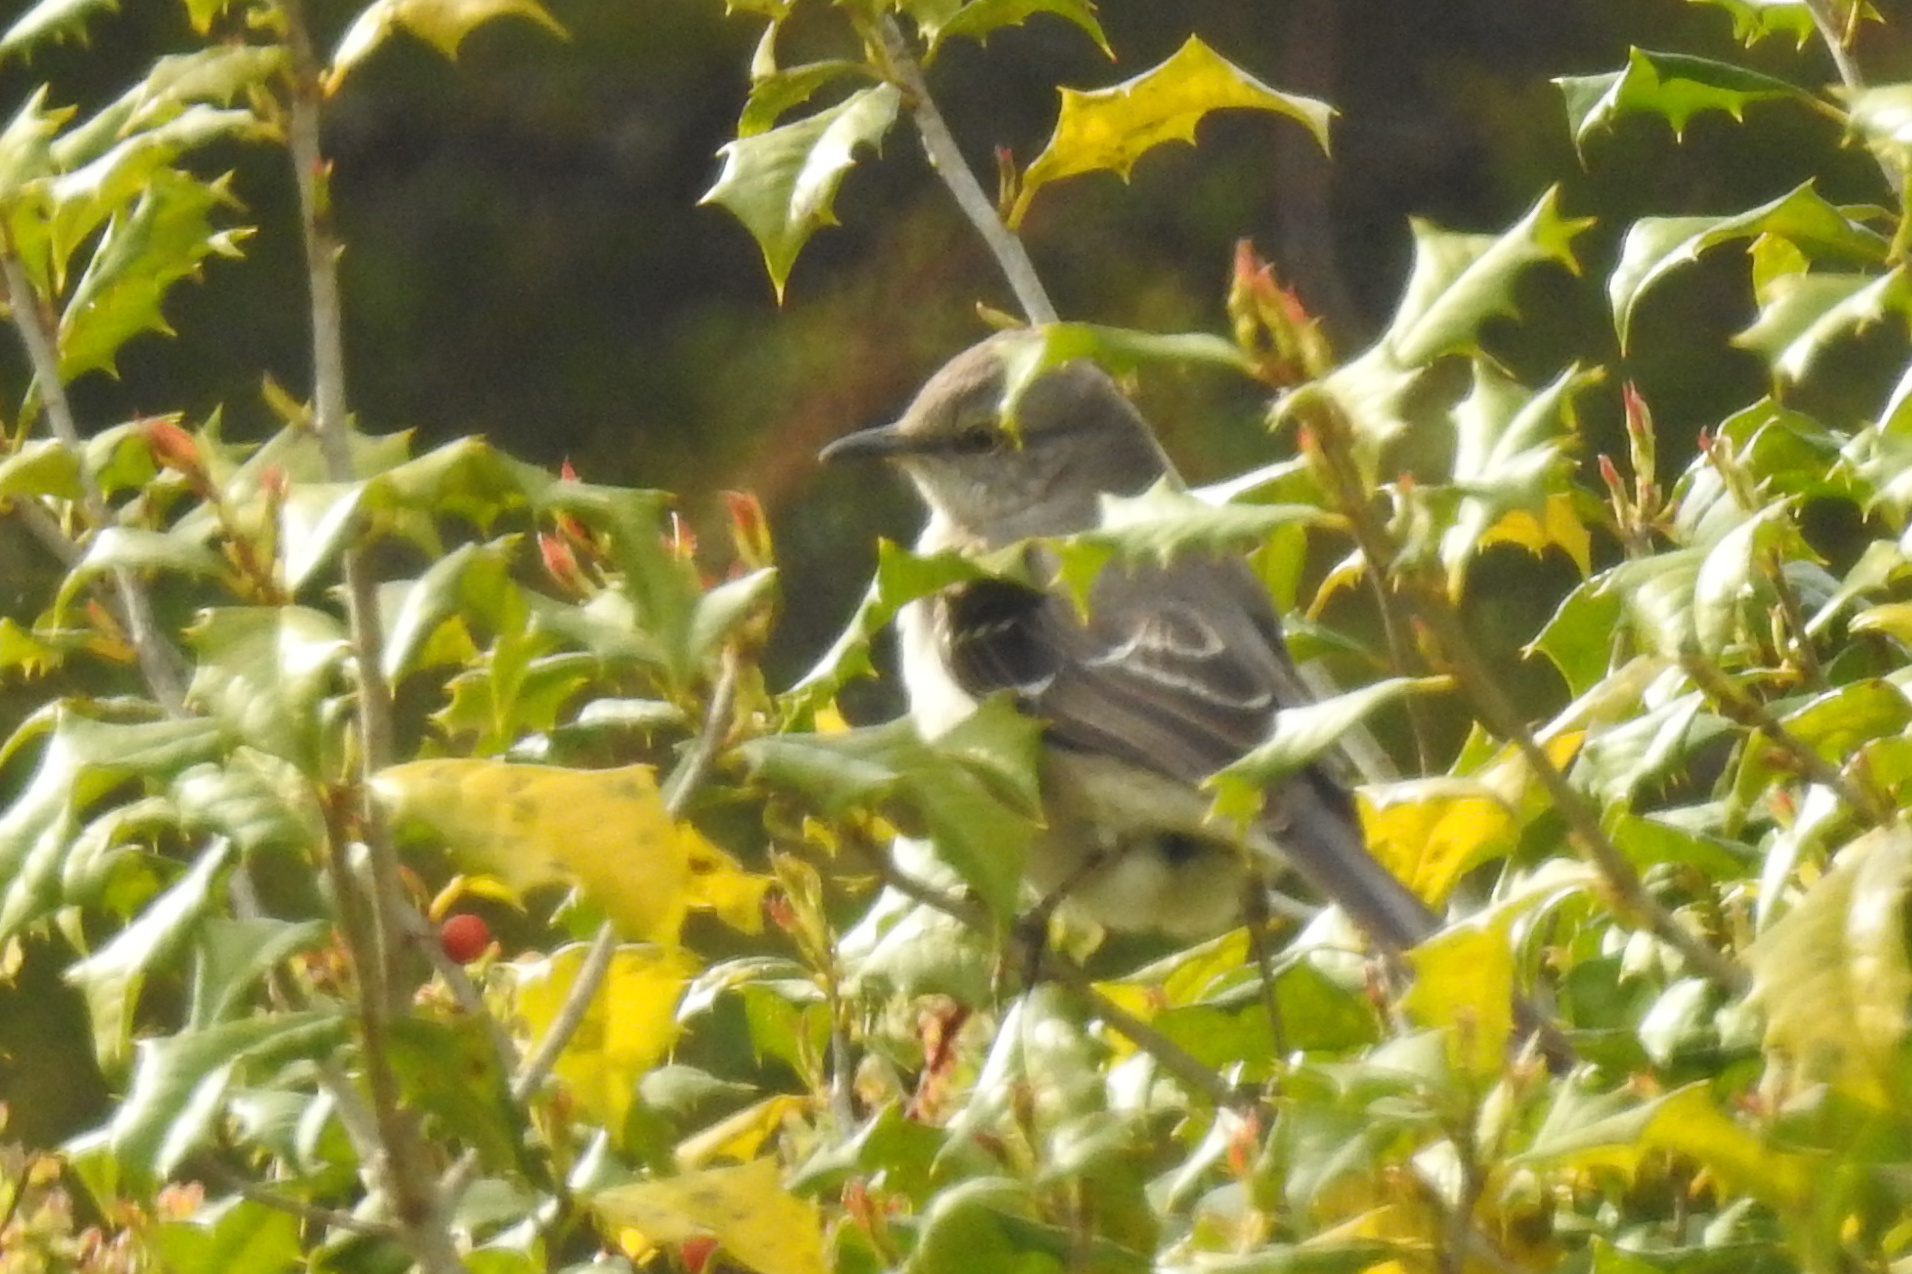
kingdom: Animalia
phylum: Chordata
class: Aves
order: Passeriformes
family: Mimidae
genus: Mimus
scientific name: Mimus polyglottos
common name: Northern mockingbird
